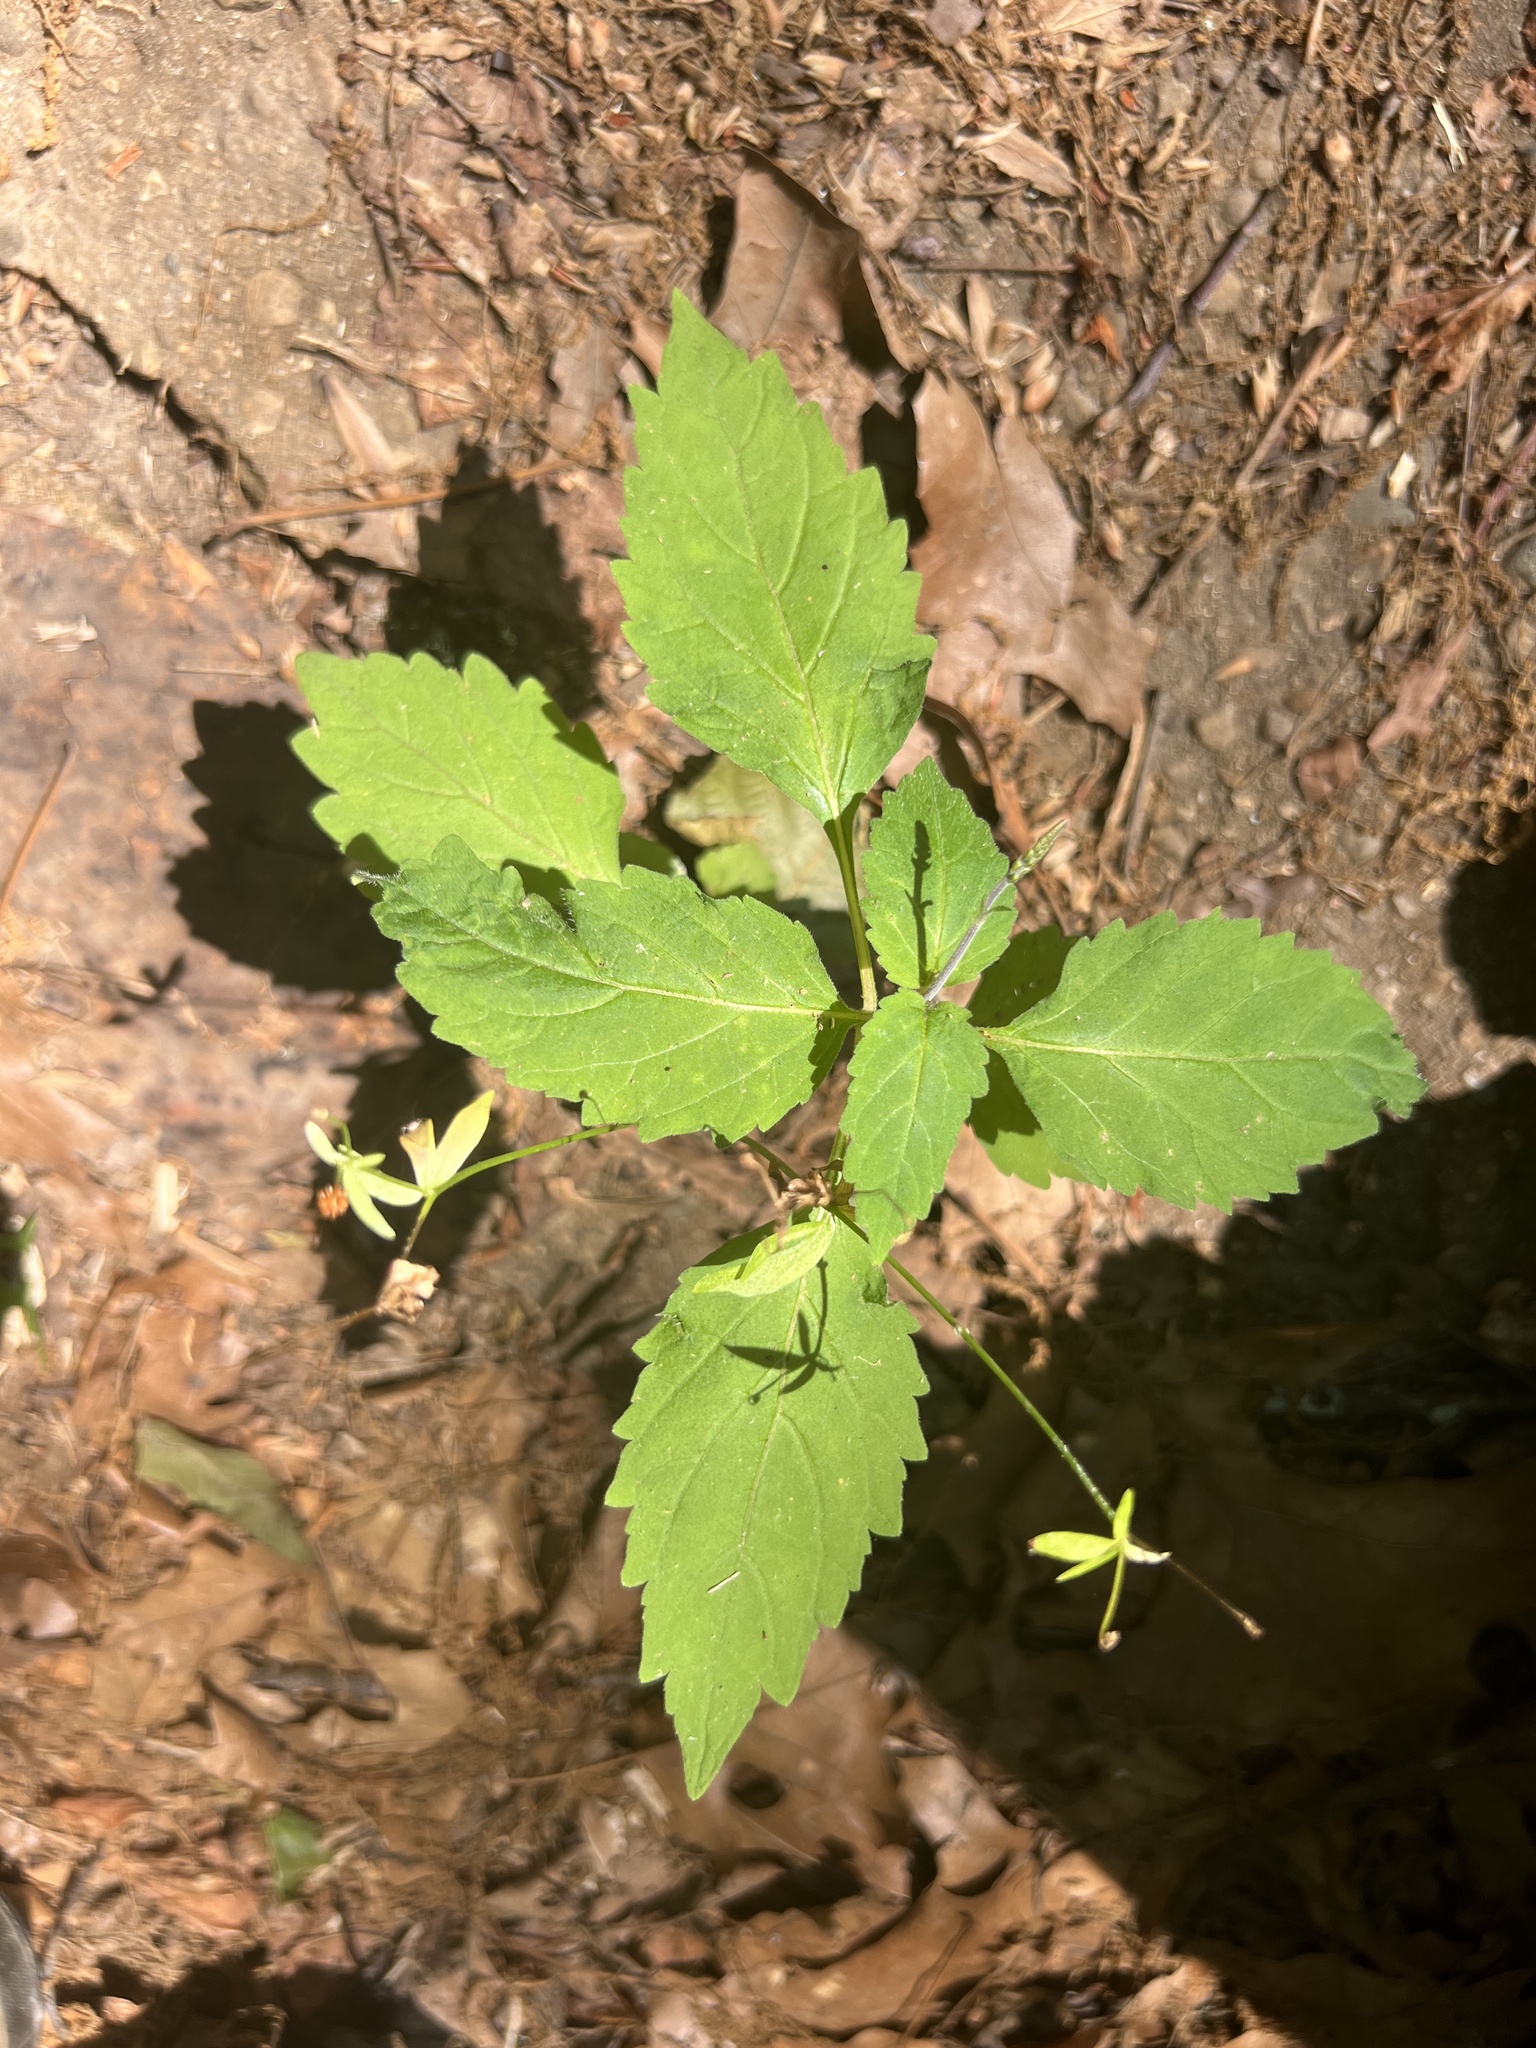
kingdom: Plantae
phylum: Tracheophyta
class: Magnoliopsida
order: Lamiales
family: Phrymaceae
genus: Phryma
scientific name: Phryma leptostachya
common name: American lopseed
